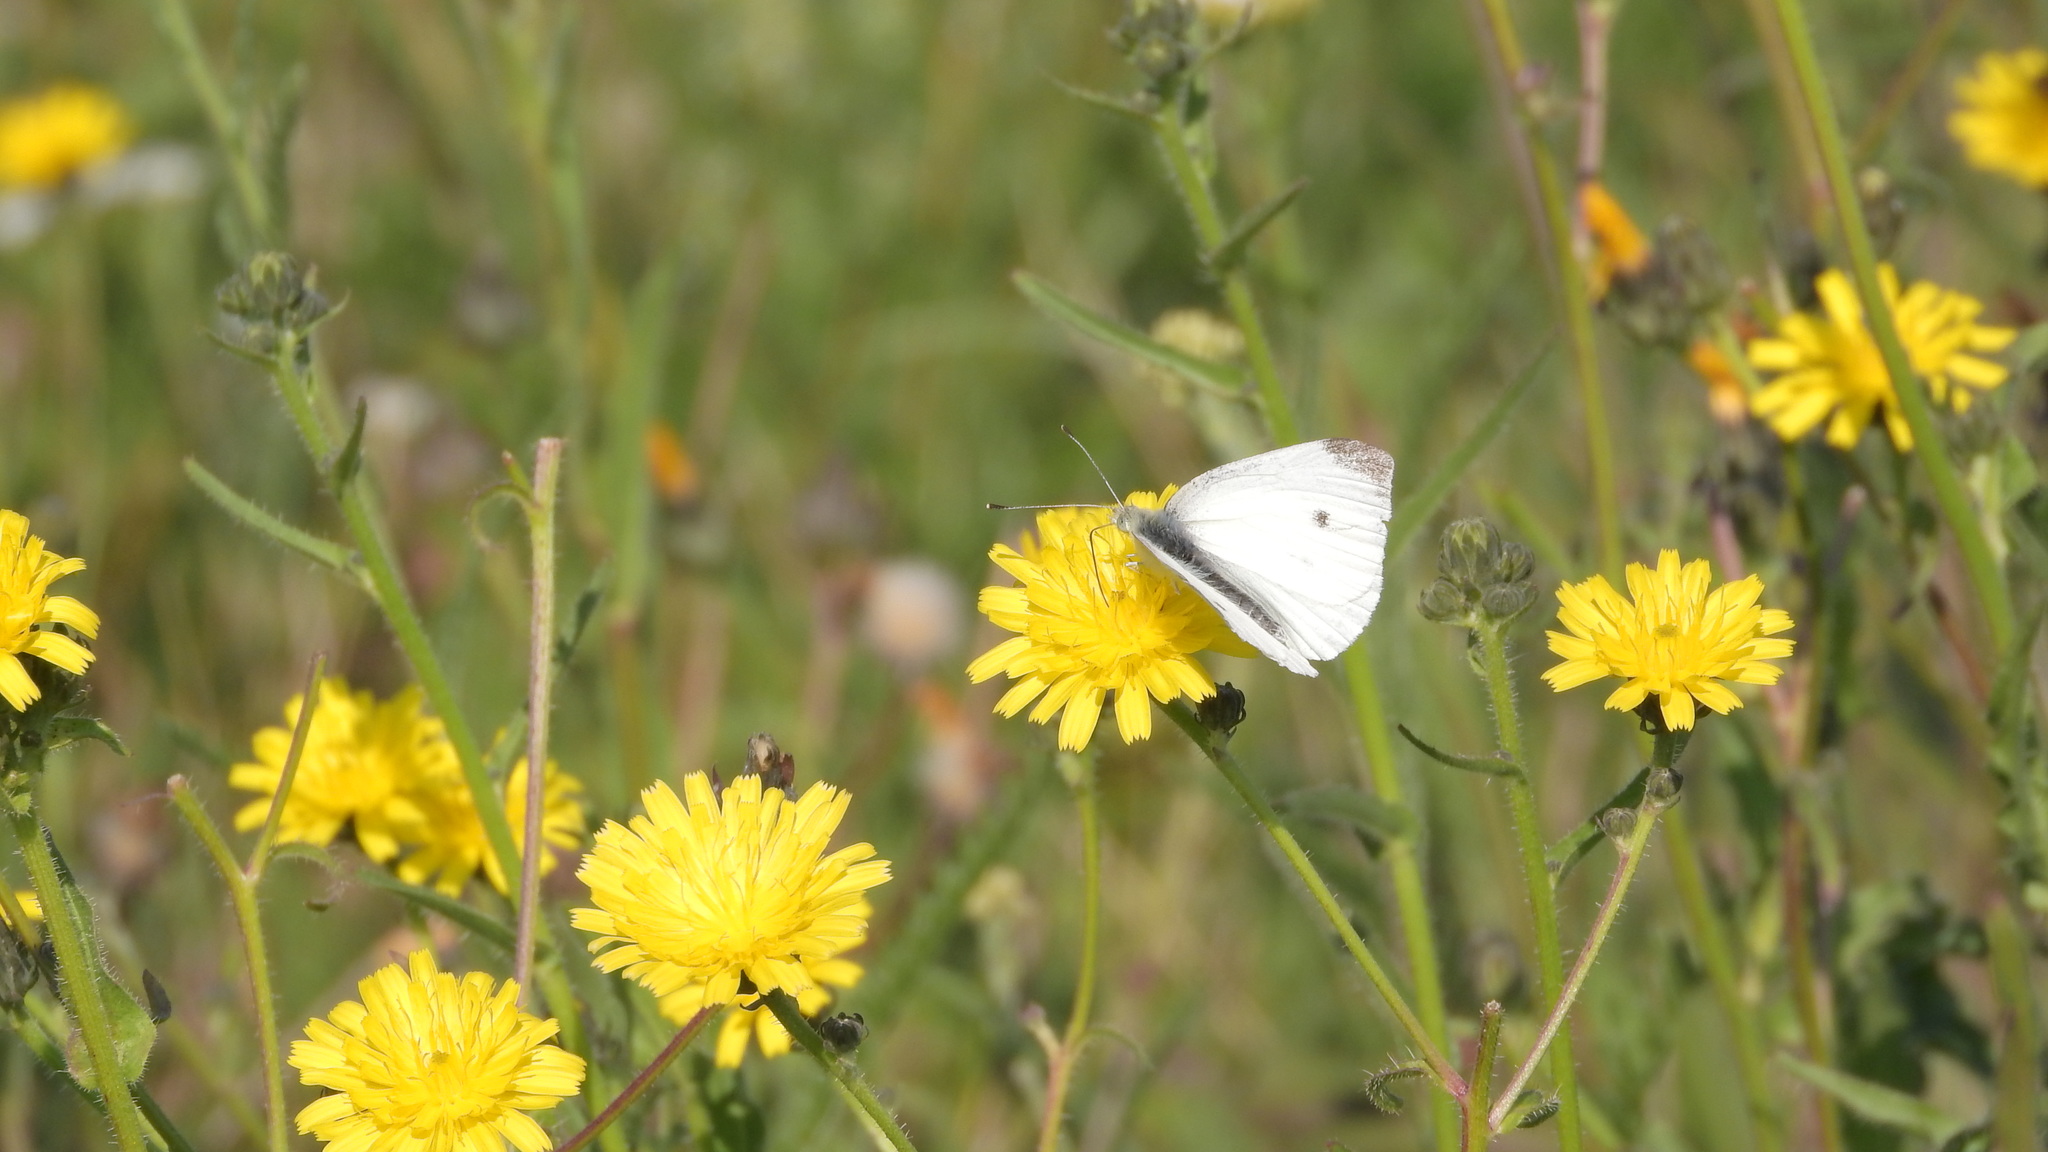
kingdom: Animalia
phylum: Arthropoda
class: Insecta
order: Lepidoptera
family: Pieridae
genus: Pieris
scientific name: Pieris rapae
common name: Small white
